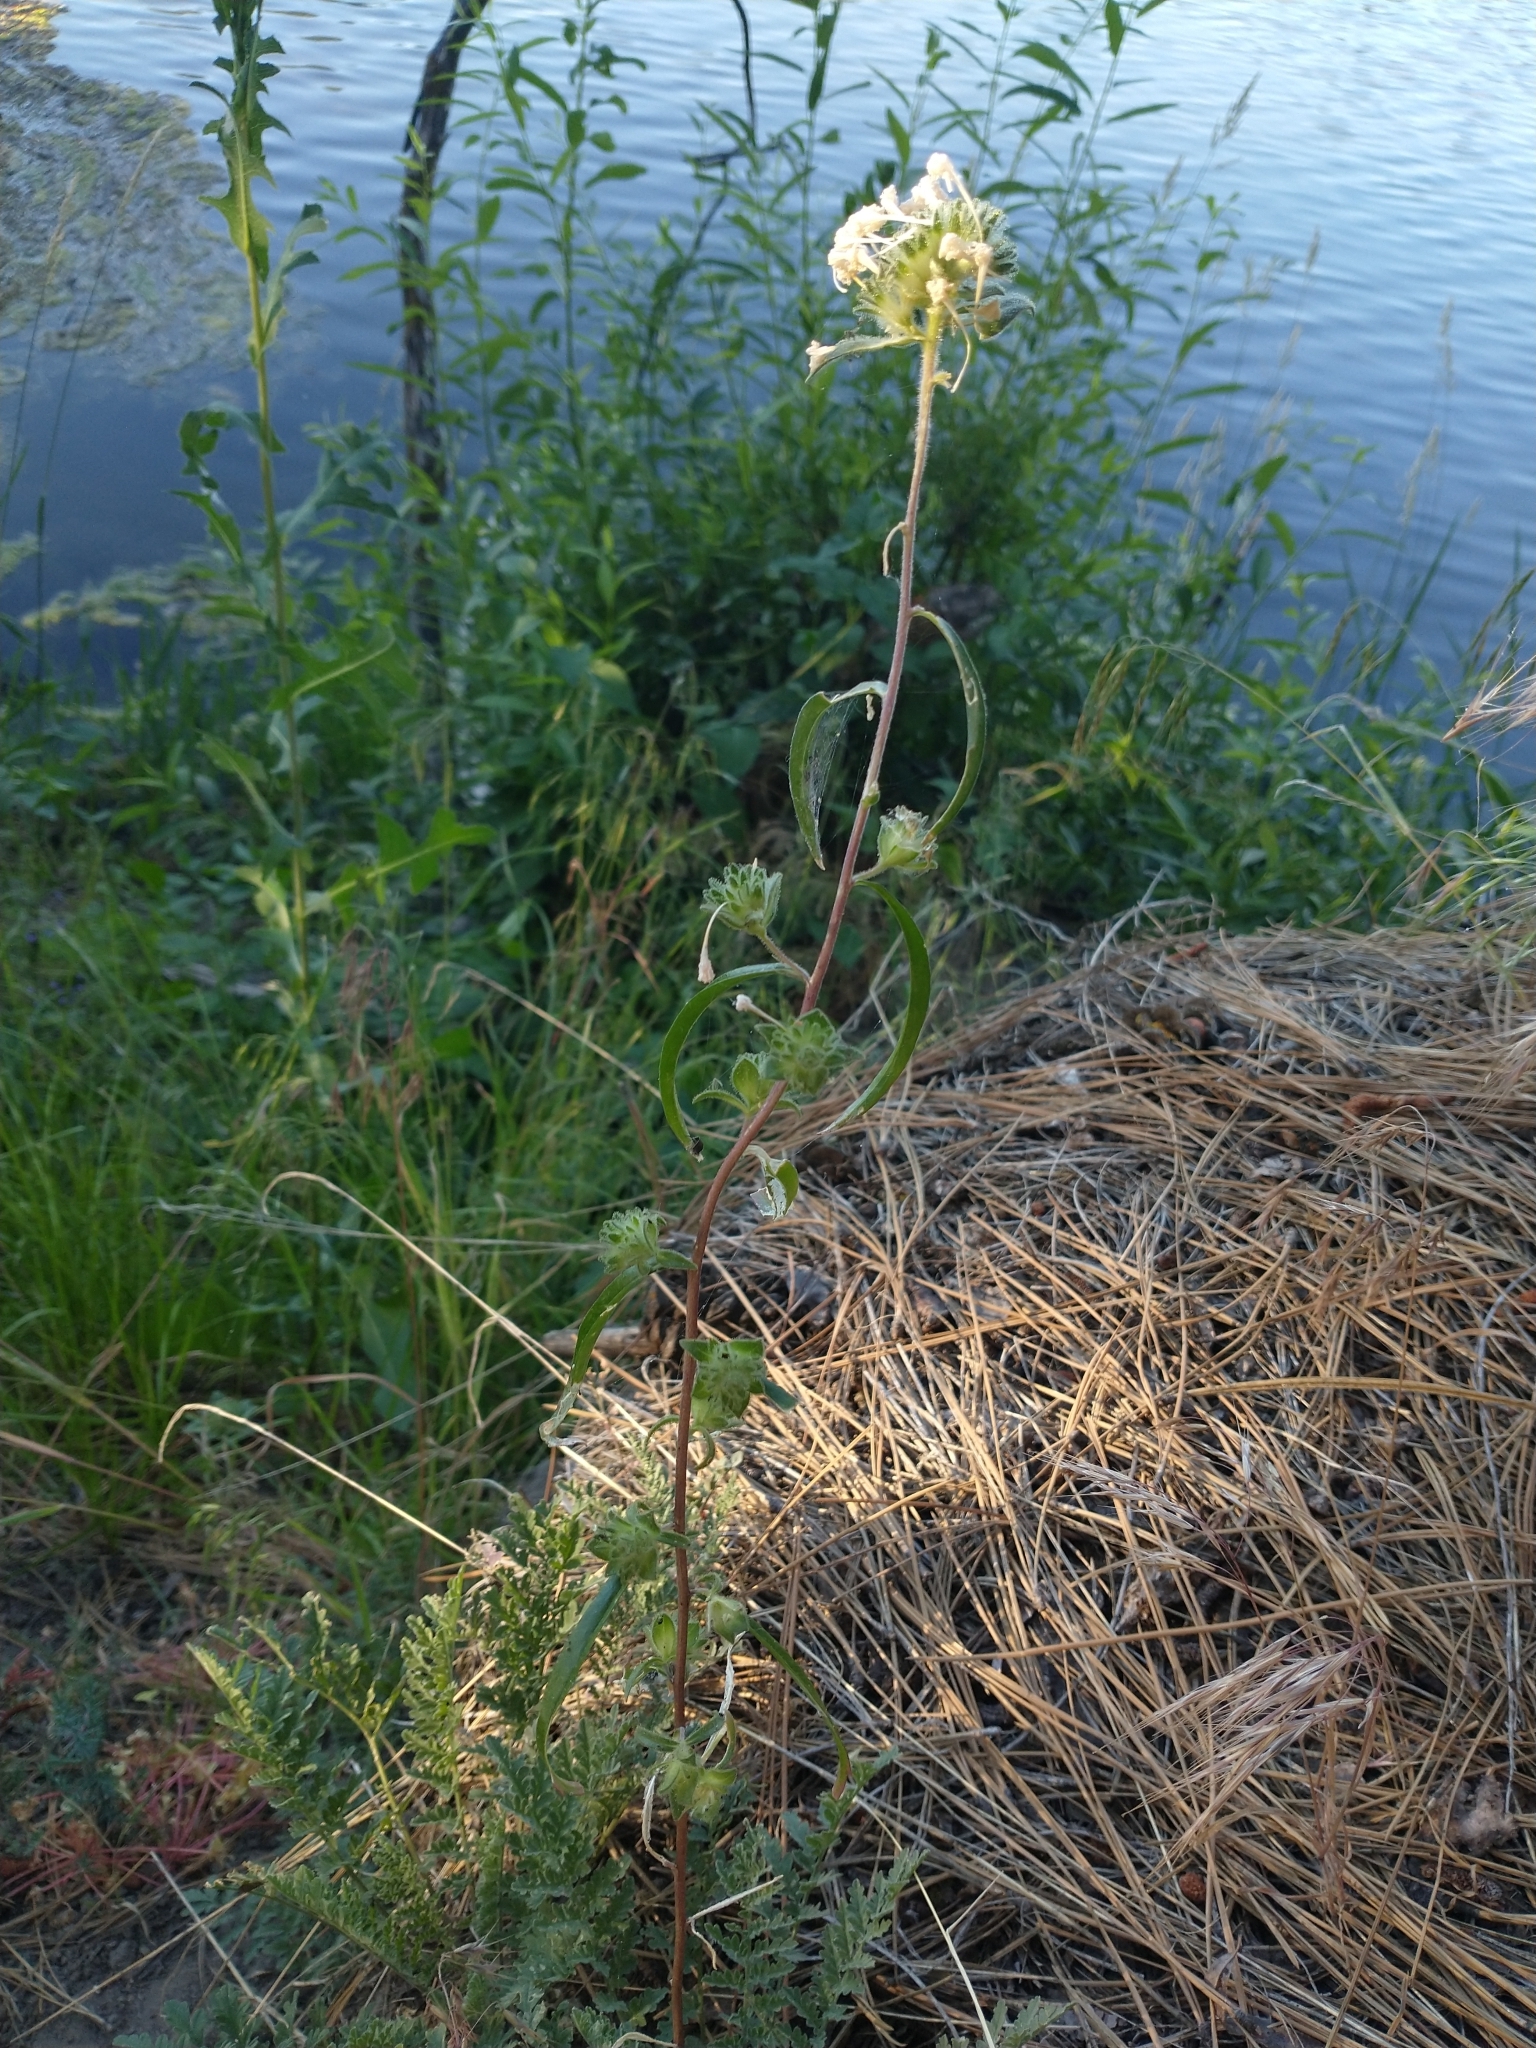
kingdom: Plantae
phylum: Tracheophyta
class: Magnoliopsida
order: Ericales
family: Polemoniaceae
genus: Collomia
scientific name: Collomia grandiflora
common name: California strawflower
